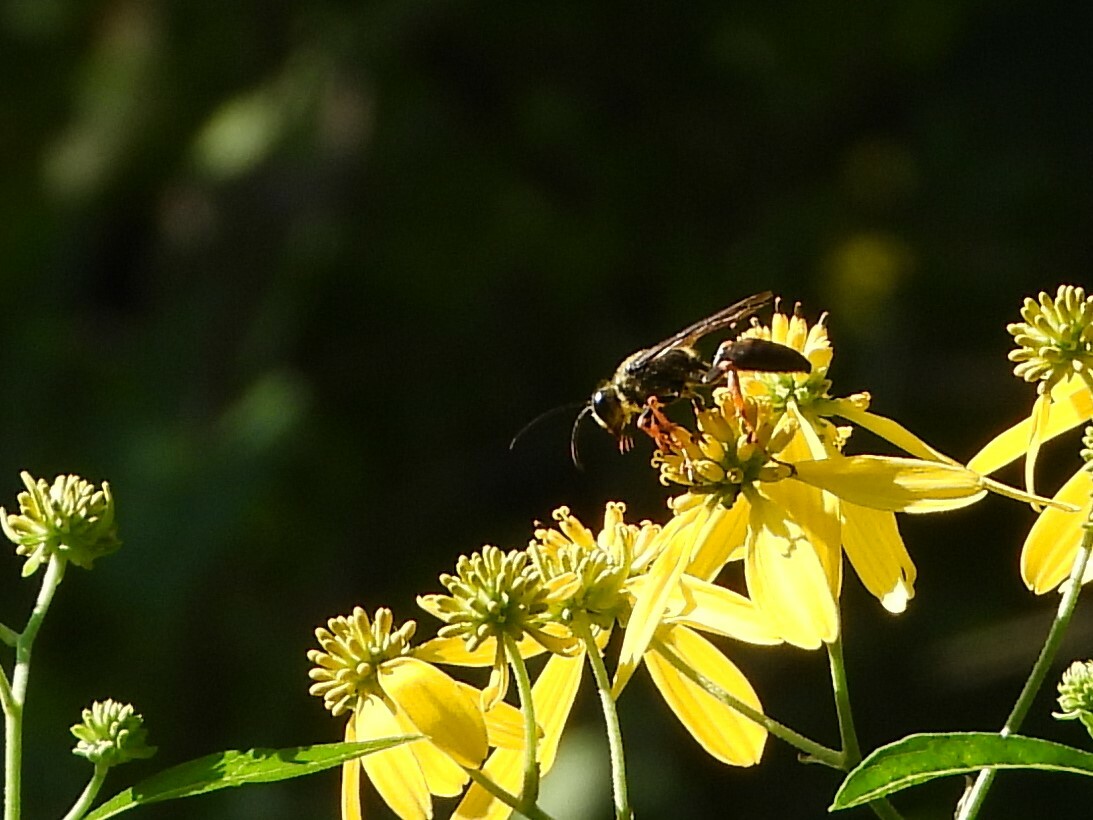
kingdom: Animalia
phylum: Arthropoda
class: Insecta
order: Hymenoptera
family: Sphecidae
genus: Sphex
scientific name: Sphex nudus
